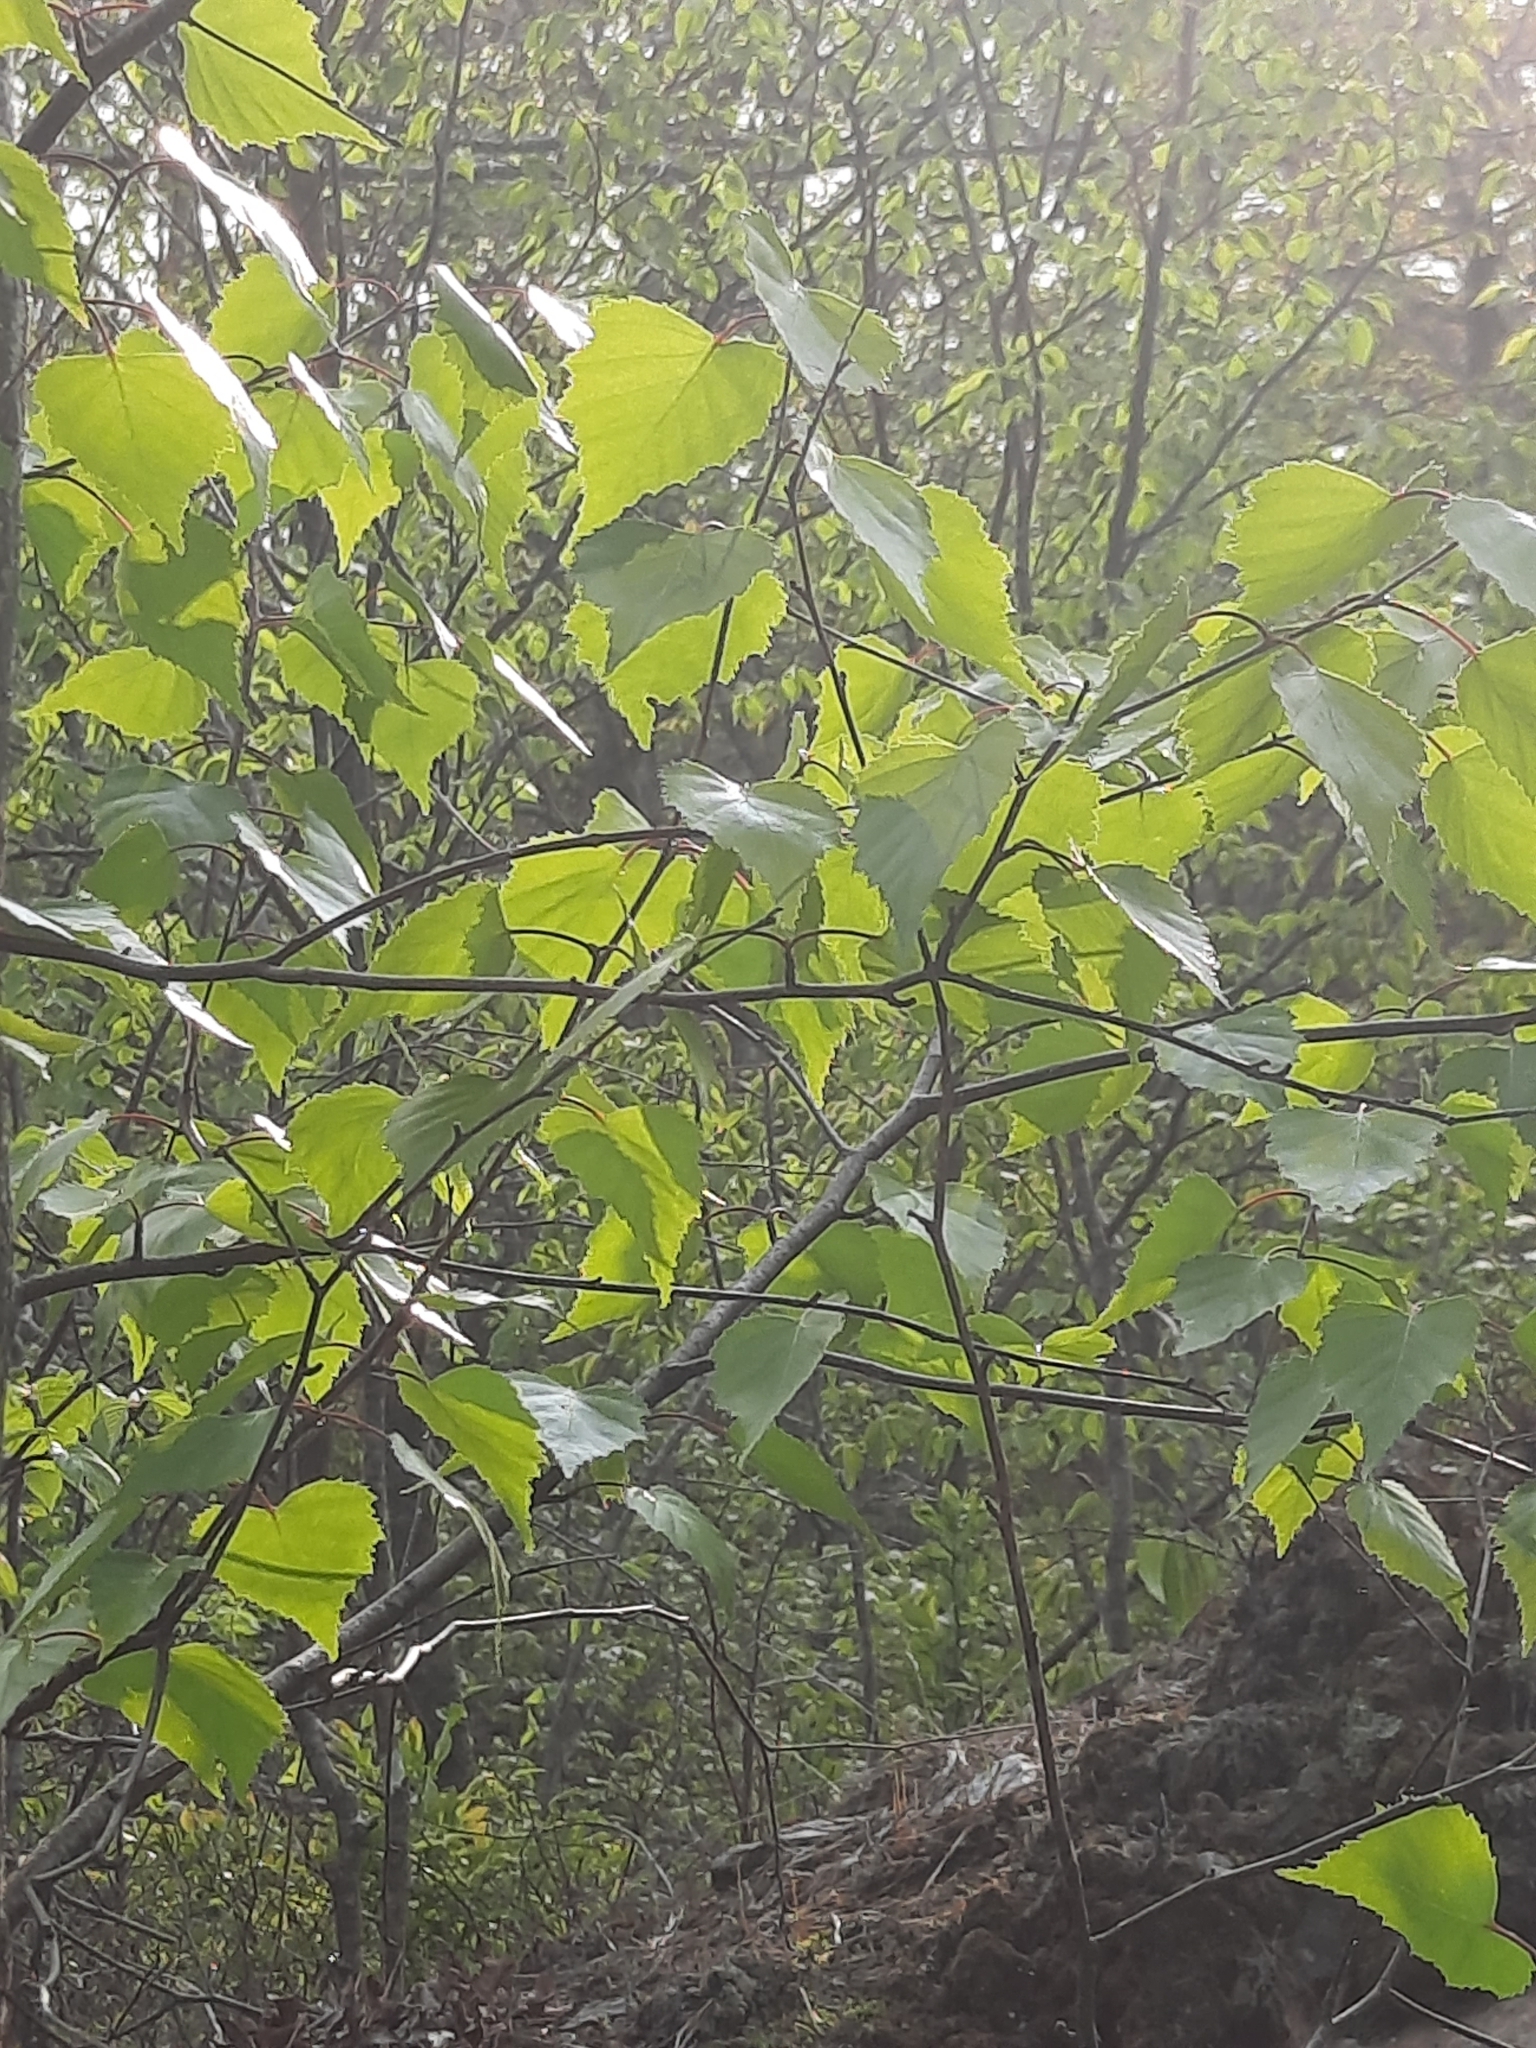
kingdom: Plantae
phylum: Tracheophyta
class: Magnoliopsida
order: Fagales
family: Betulaceae
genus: Betula
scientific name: Betula populifolia
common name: Fire birch
